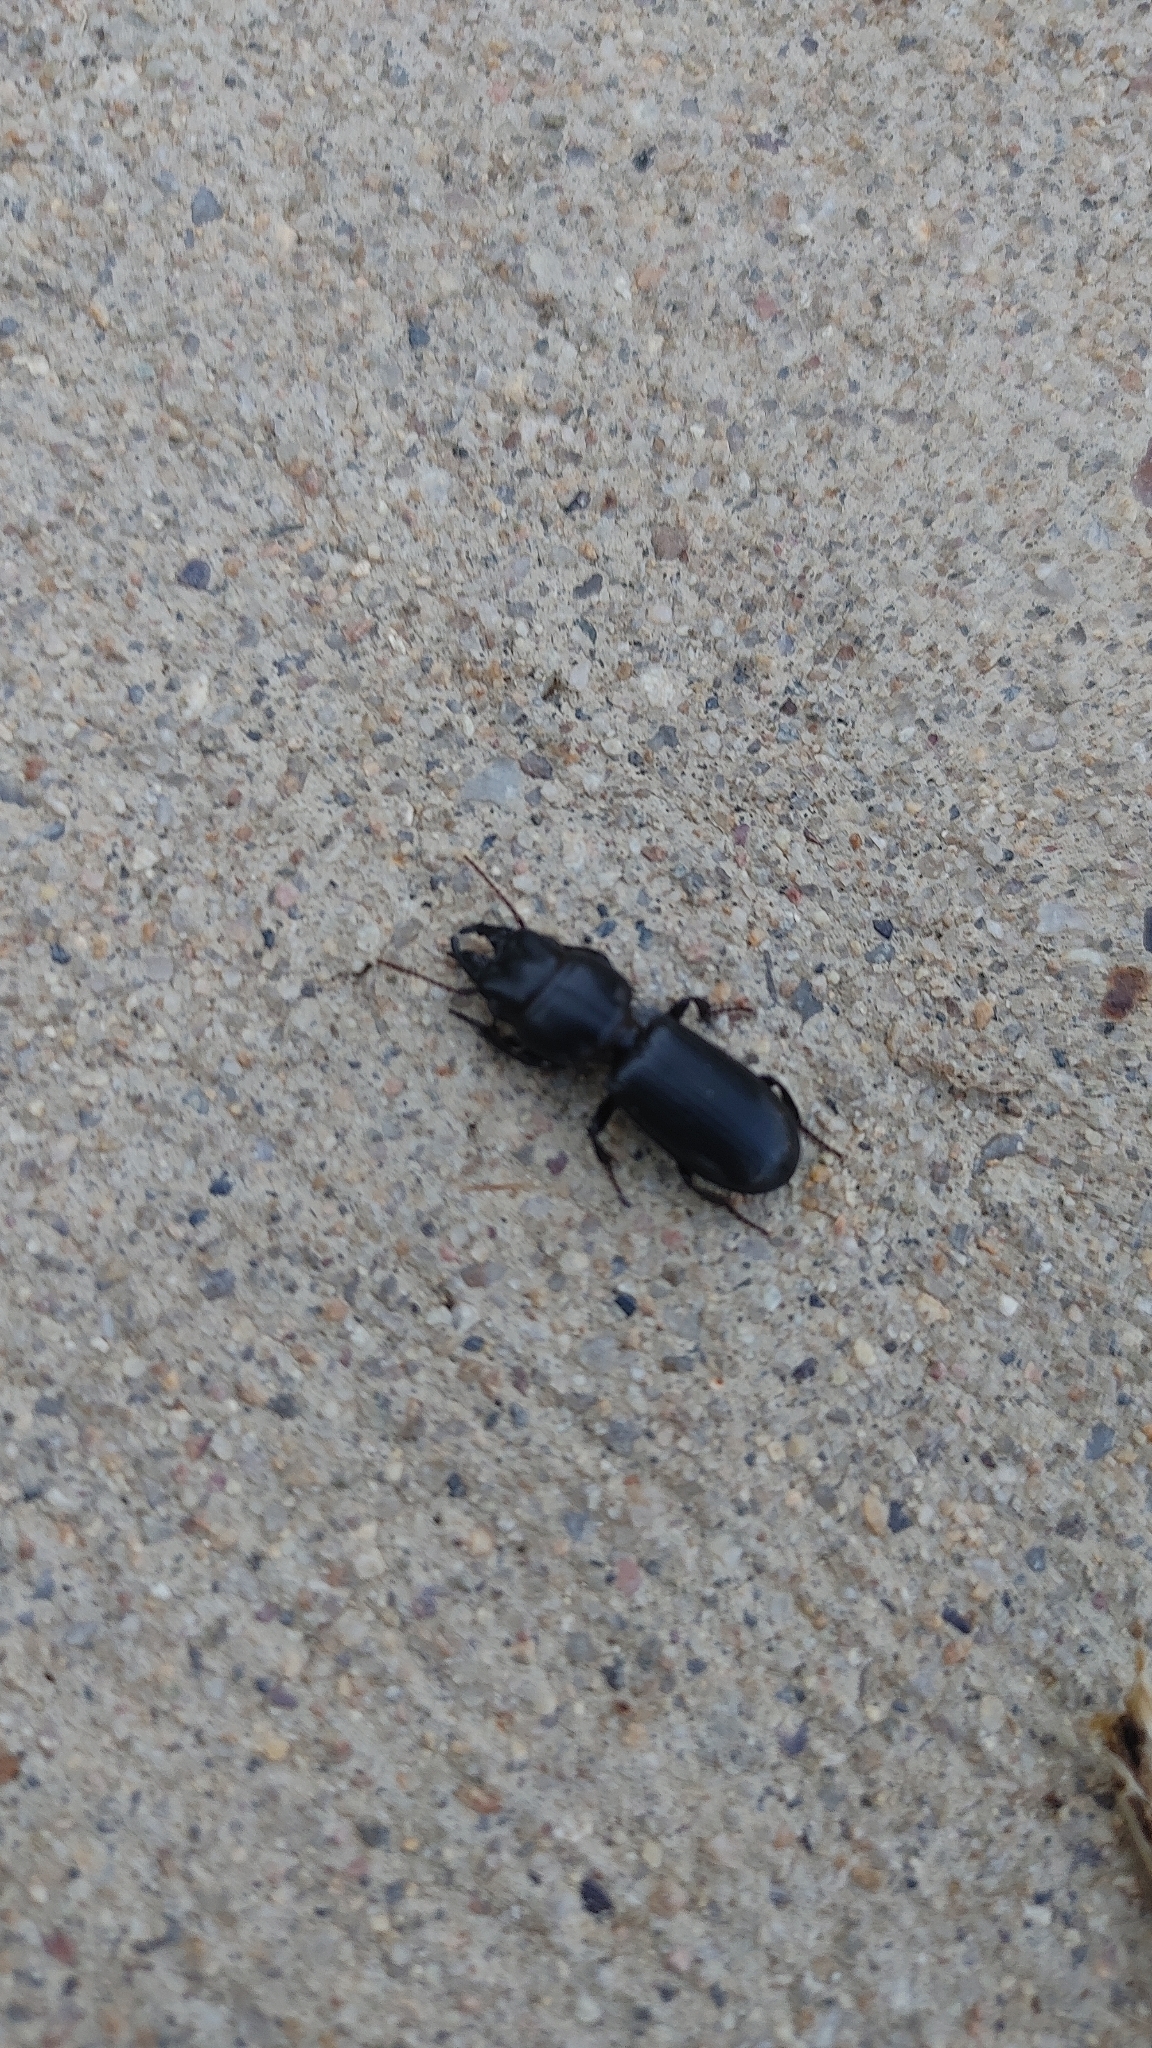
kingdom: Animalia
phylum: Arthropoda
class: Insecta
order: Coleoptera
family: Carabidae
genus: Scarites
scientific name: Scarites subterraneus
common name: Big-headed ground beetle
